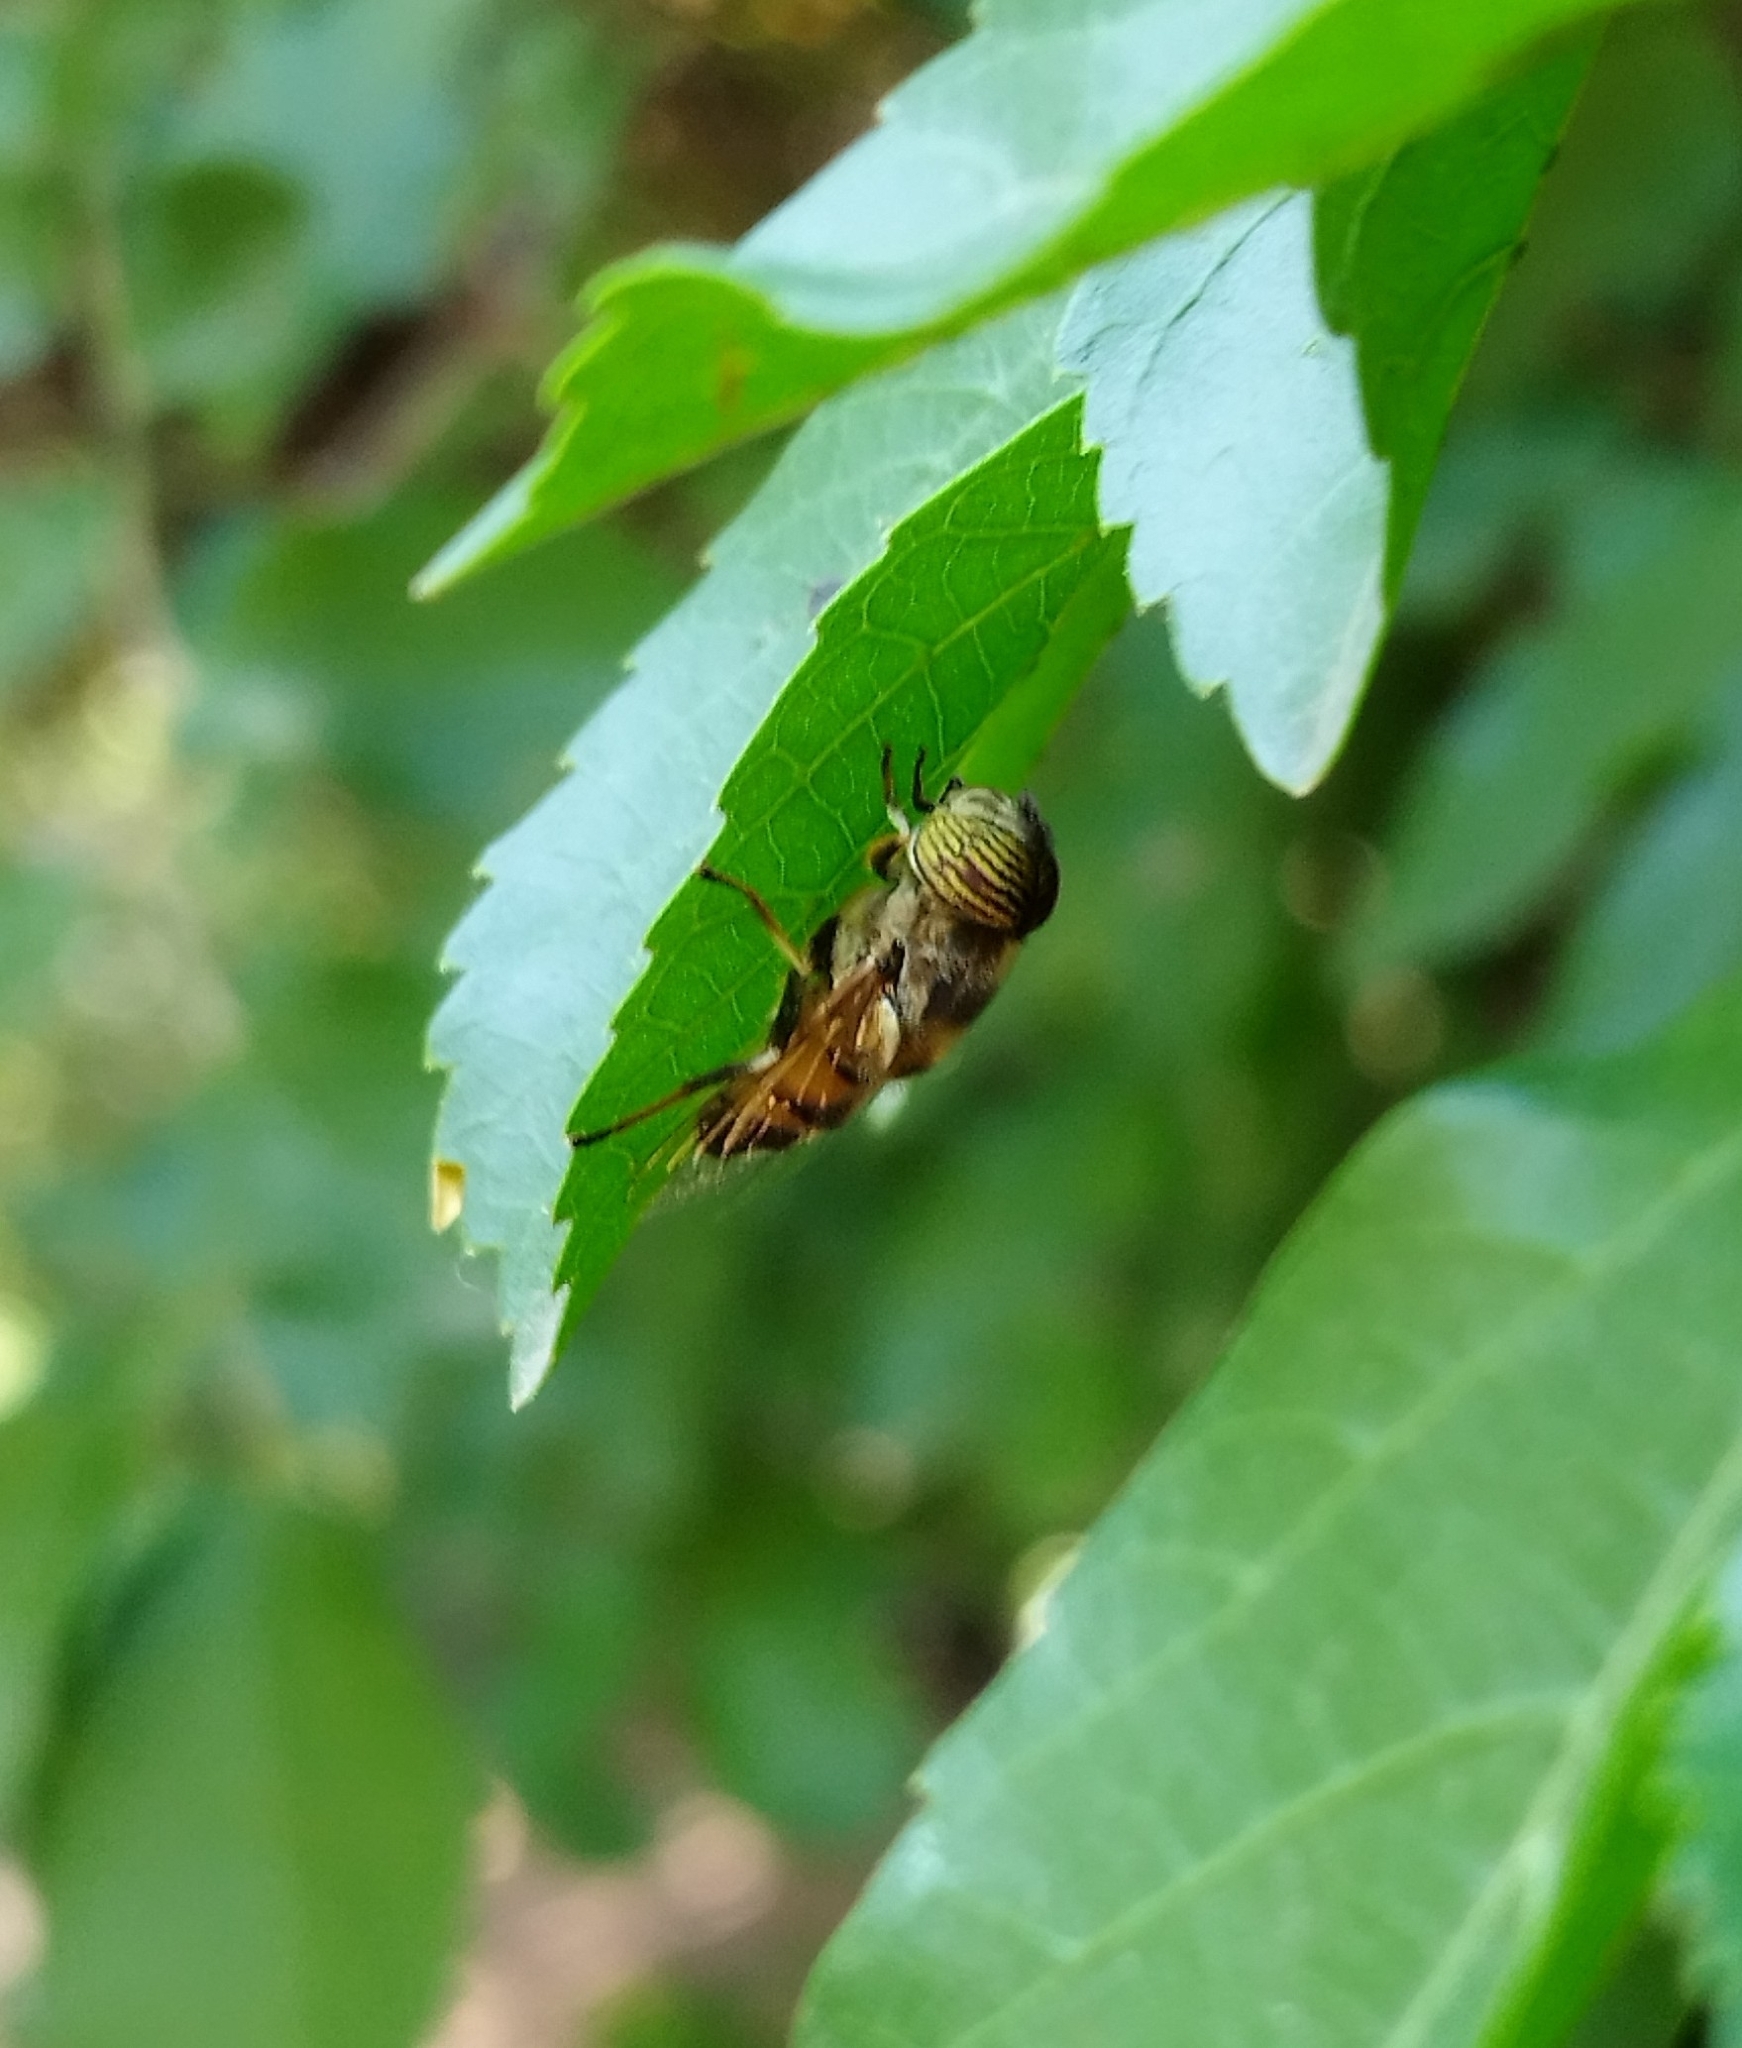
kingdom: Animalia
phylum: Arthropoda
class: Insecta
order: Diptera
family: Syrphidae
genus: Eristalinus
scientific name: Eristalinus taeniops
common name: Syrphid fly
